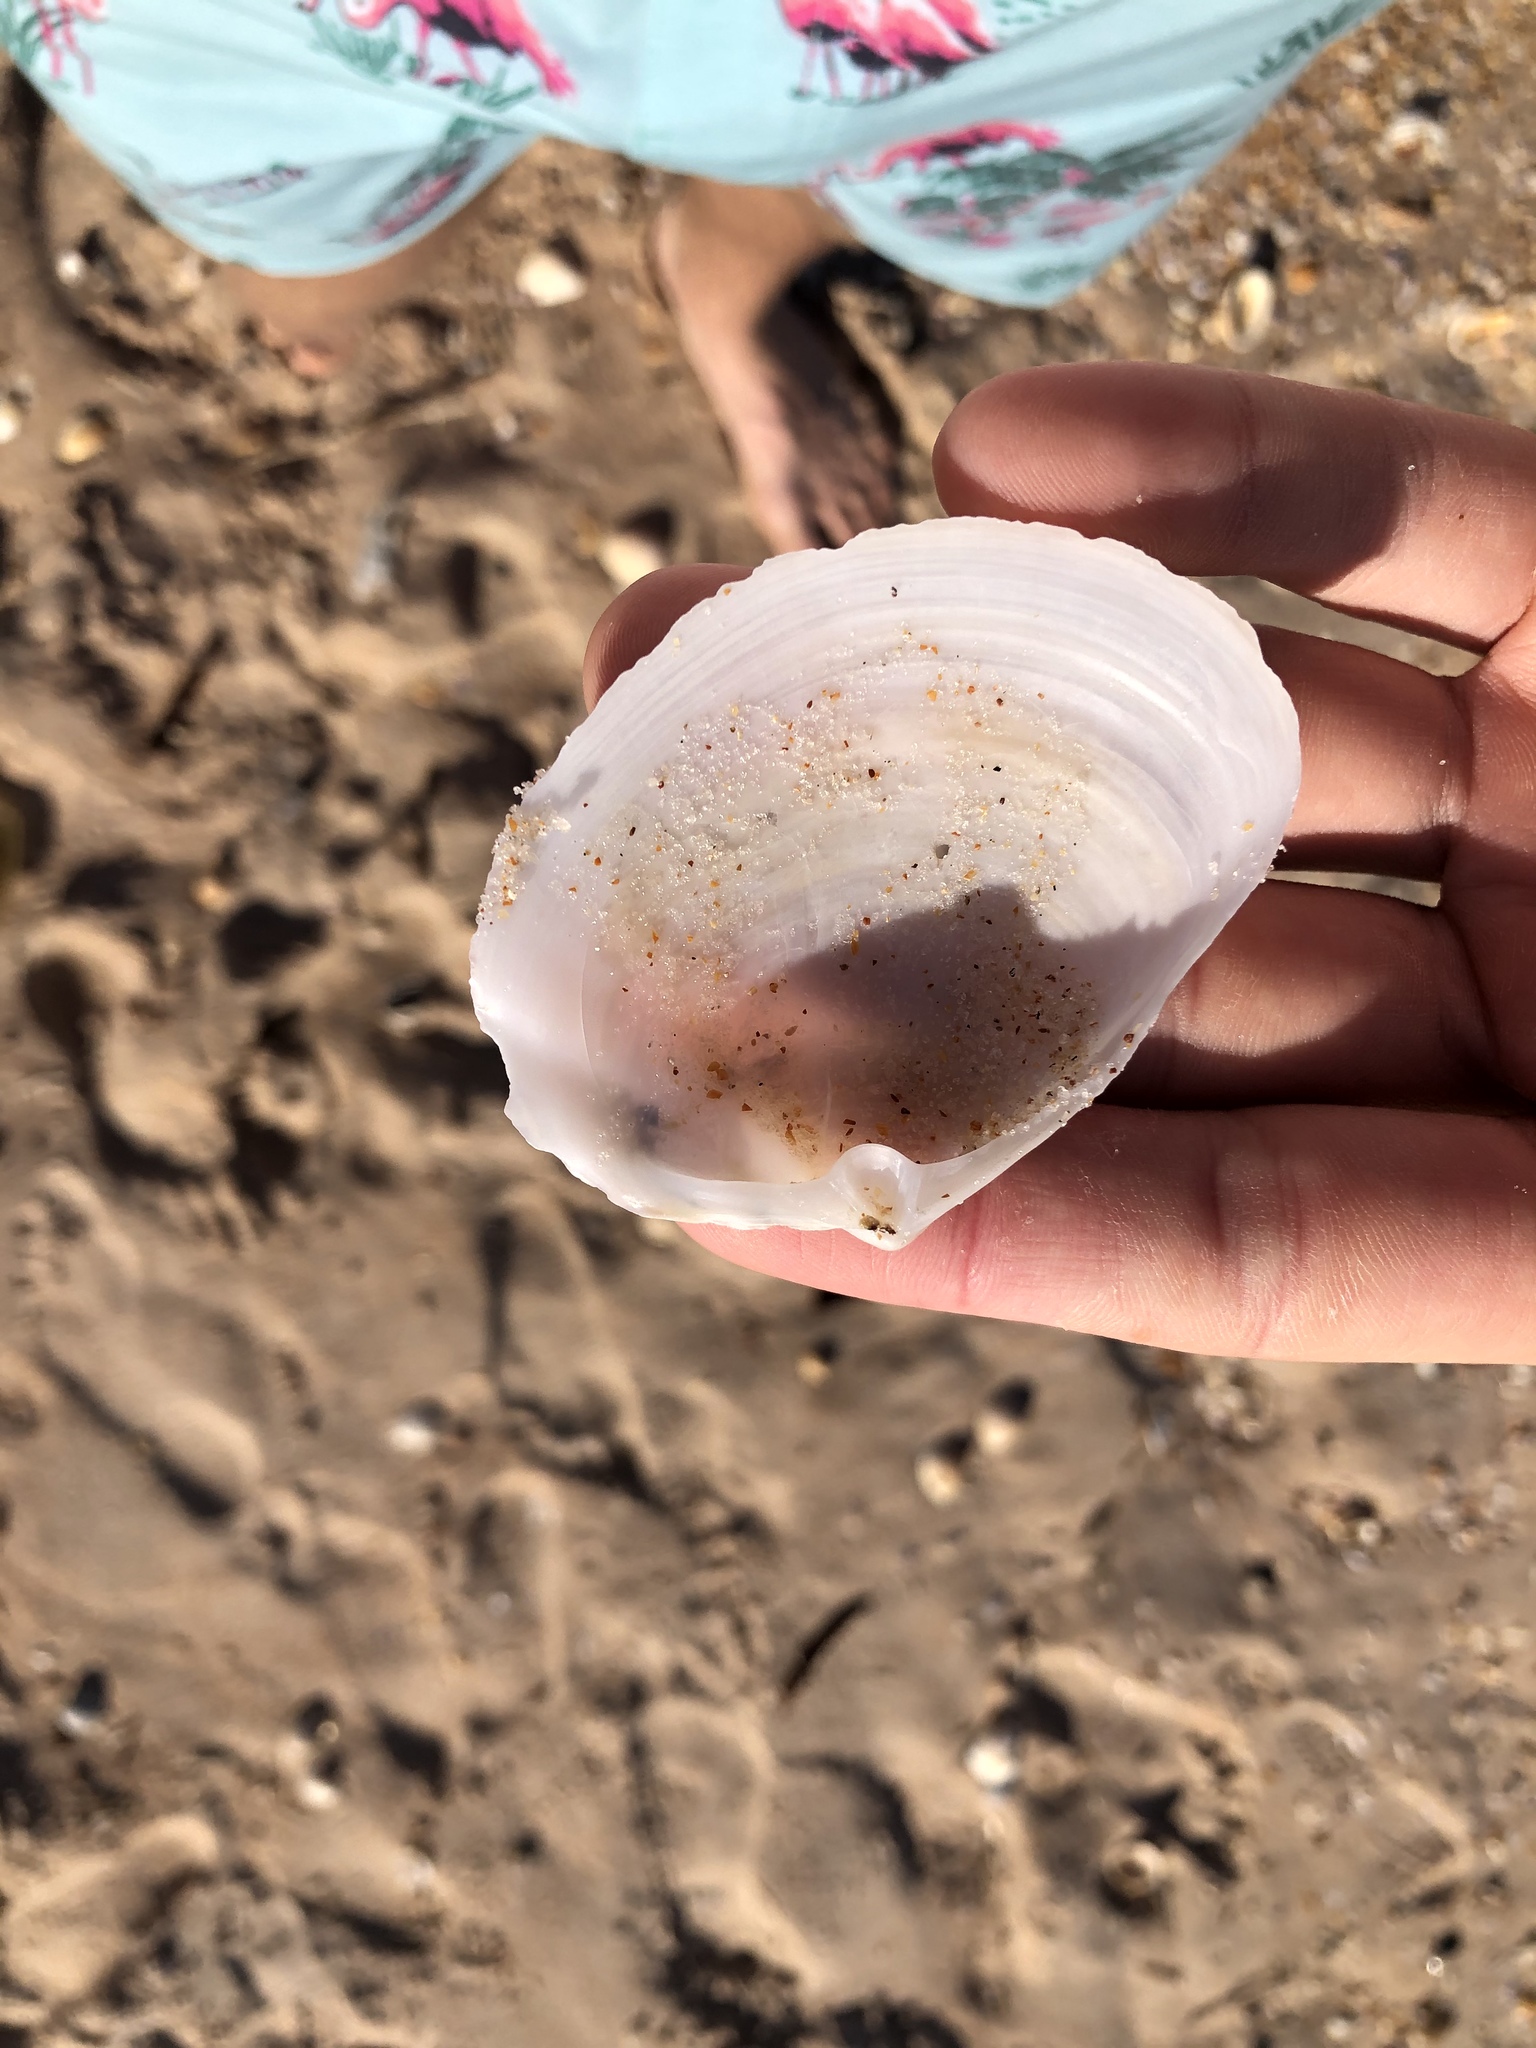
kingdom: Animalia
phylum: Mollusca
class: Bivalvia
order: Venerida
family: Anatinellidae
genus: Anatina
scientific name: Anatina anatina
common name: Smooth duckclam
